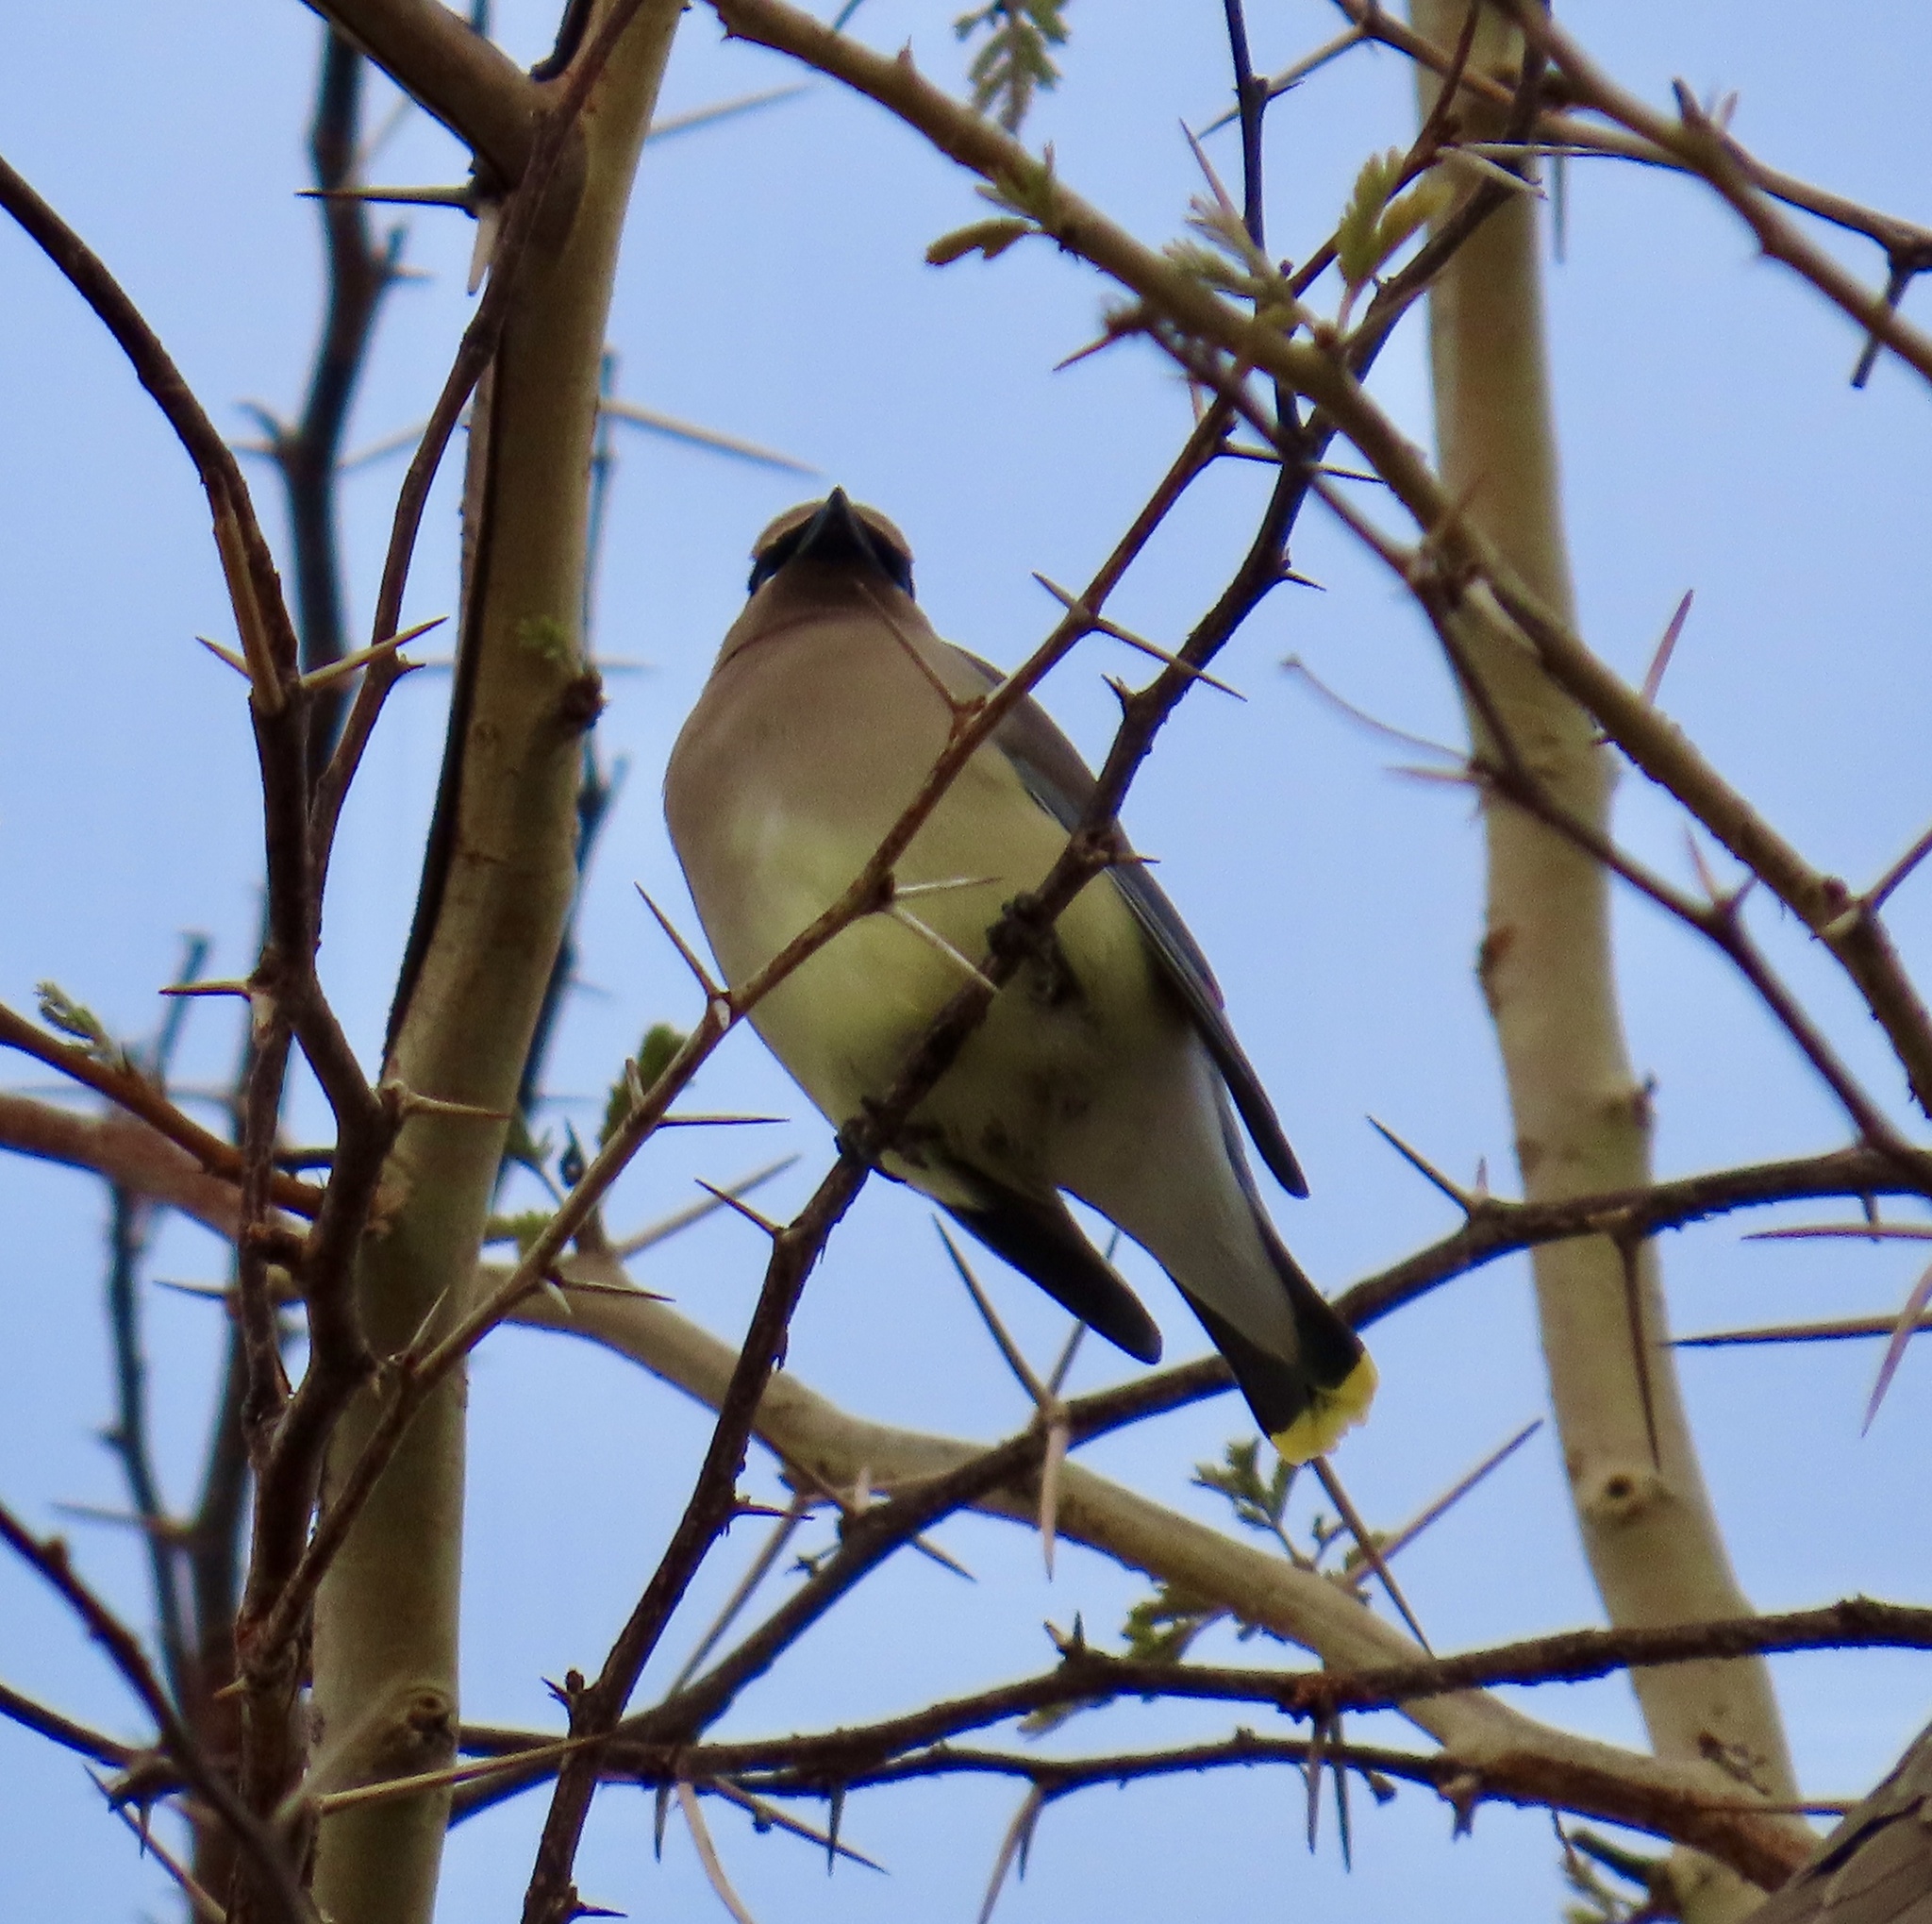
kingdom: Animalia
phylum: Chordata
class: Aves
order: Passeriformes
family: Bombycillidae
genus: Bombycilla
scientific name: Bombycilla cedrorum
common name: Cedar waxwing
